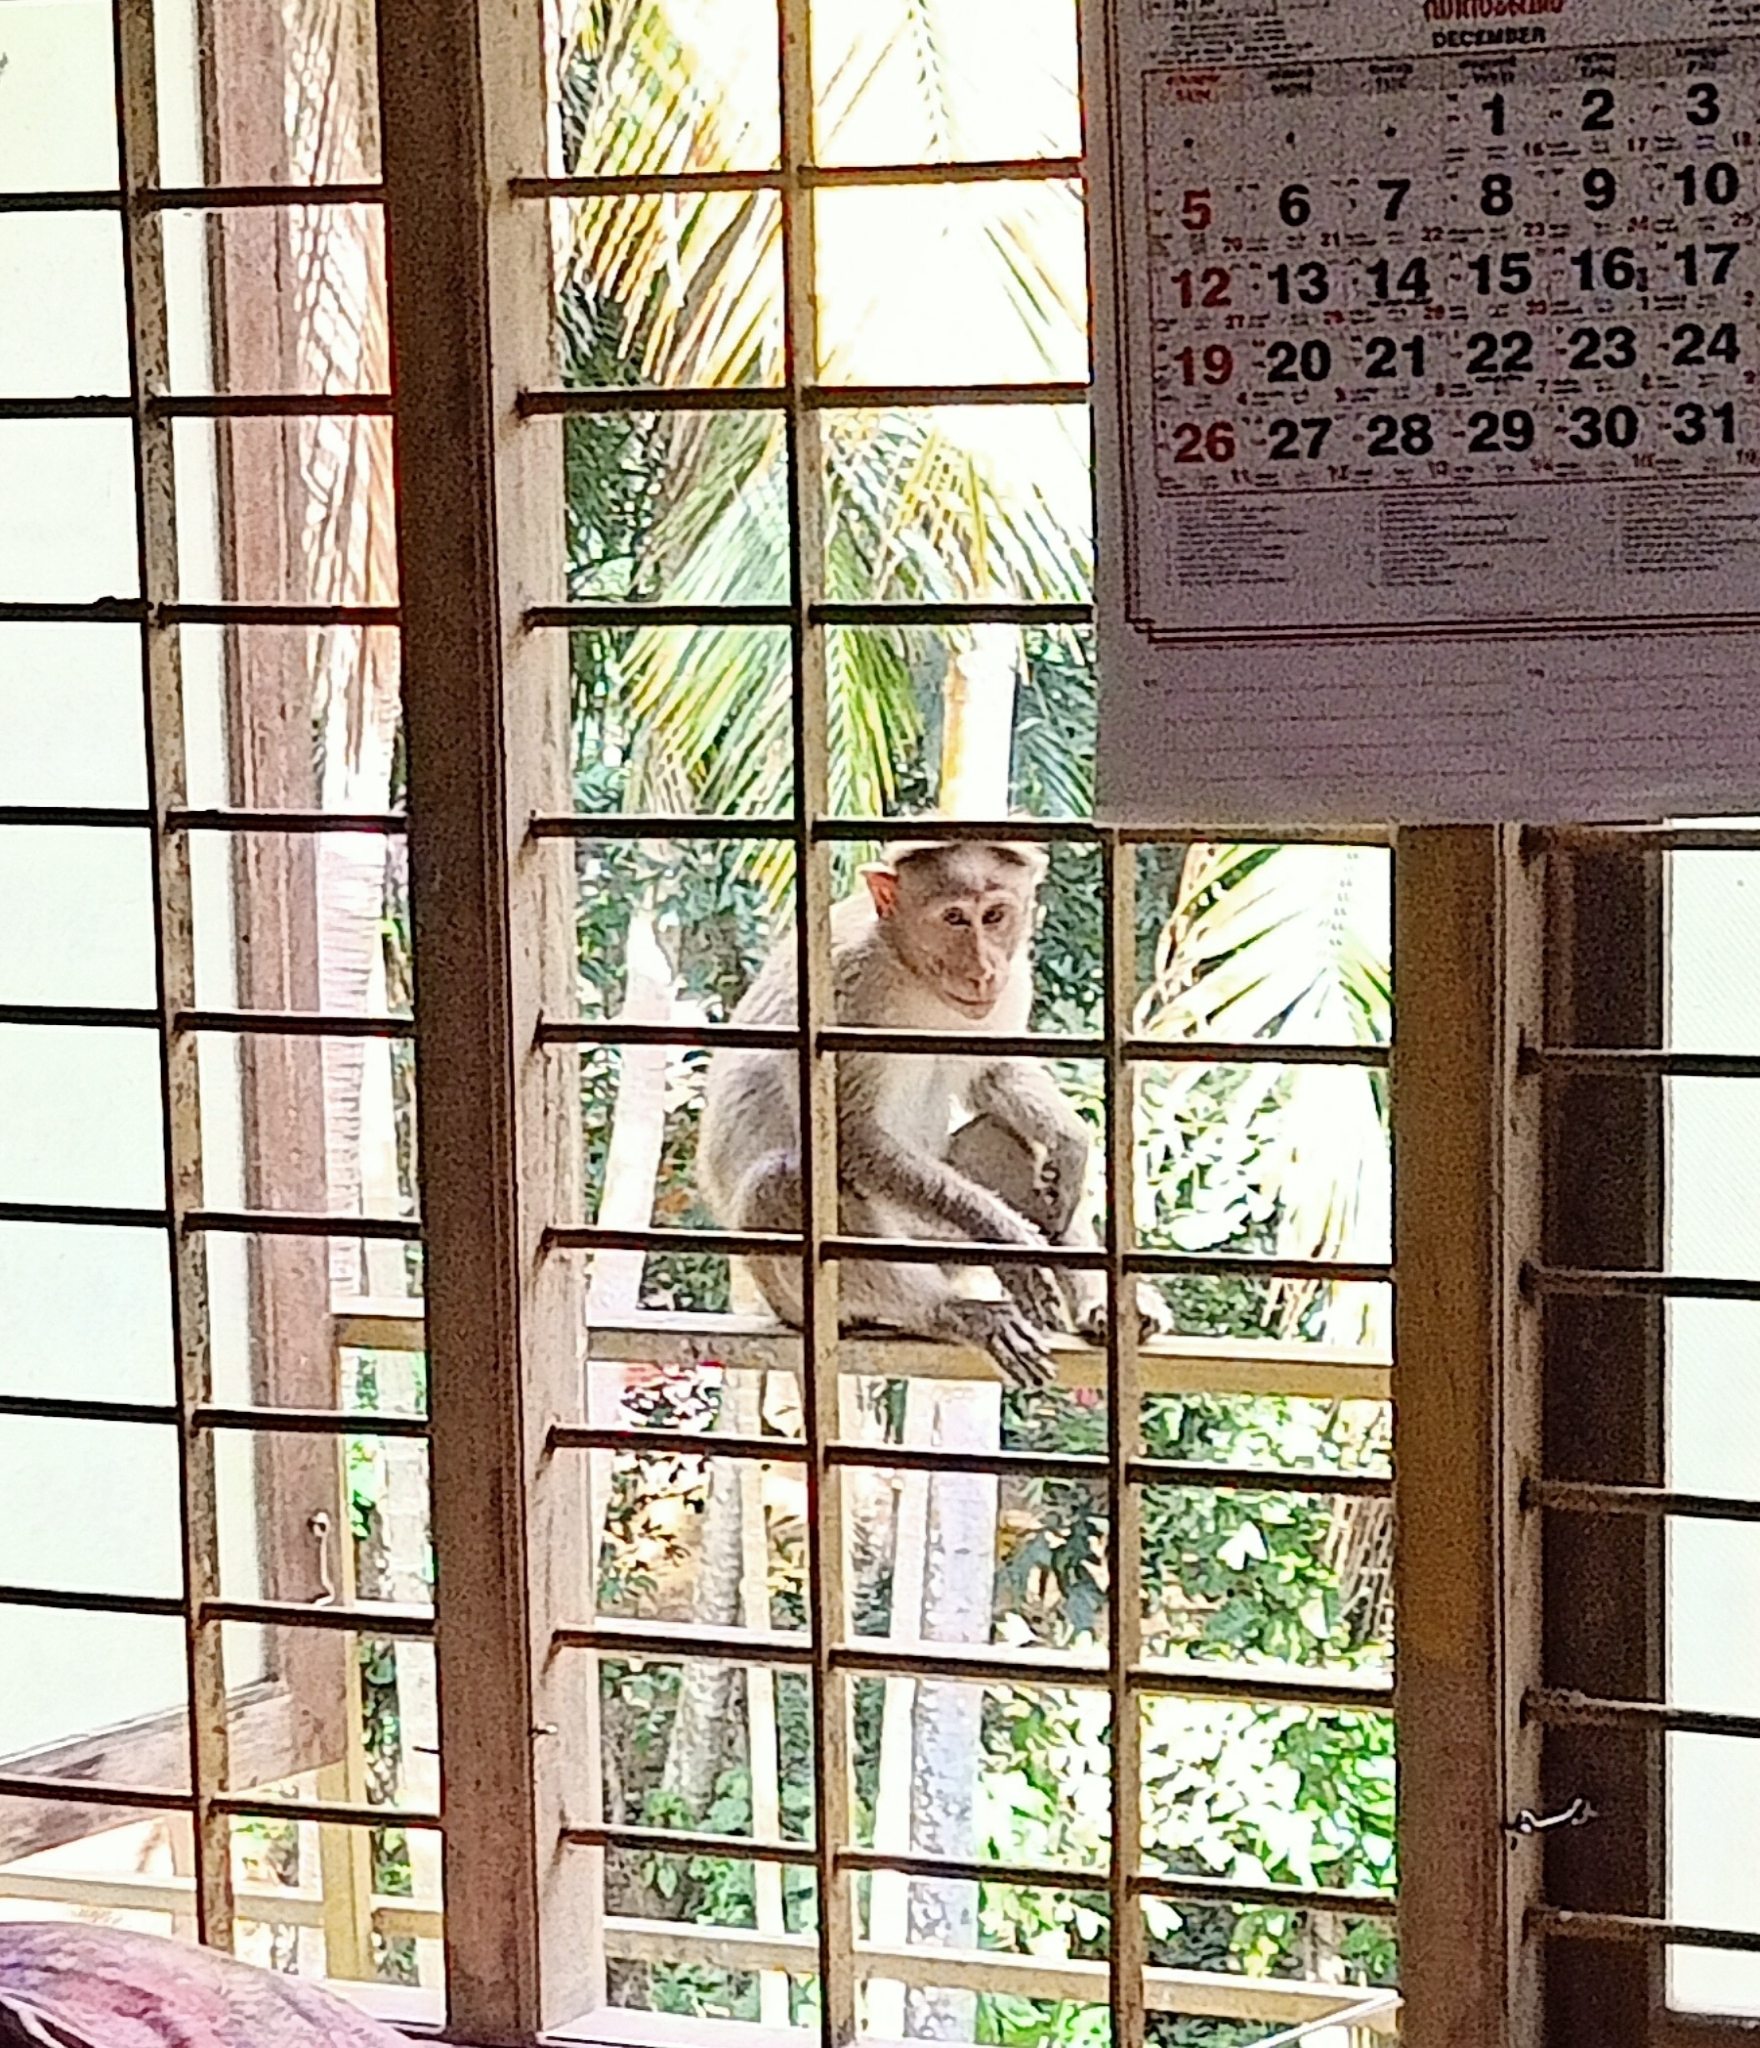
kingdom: Animalia
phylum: Chordata
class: Mammalia
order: Primates
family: Cercopithecidae
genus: Macaca
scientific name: Macaca radiata
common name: Bonnet macaque
